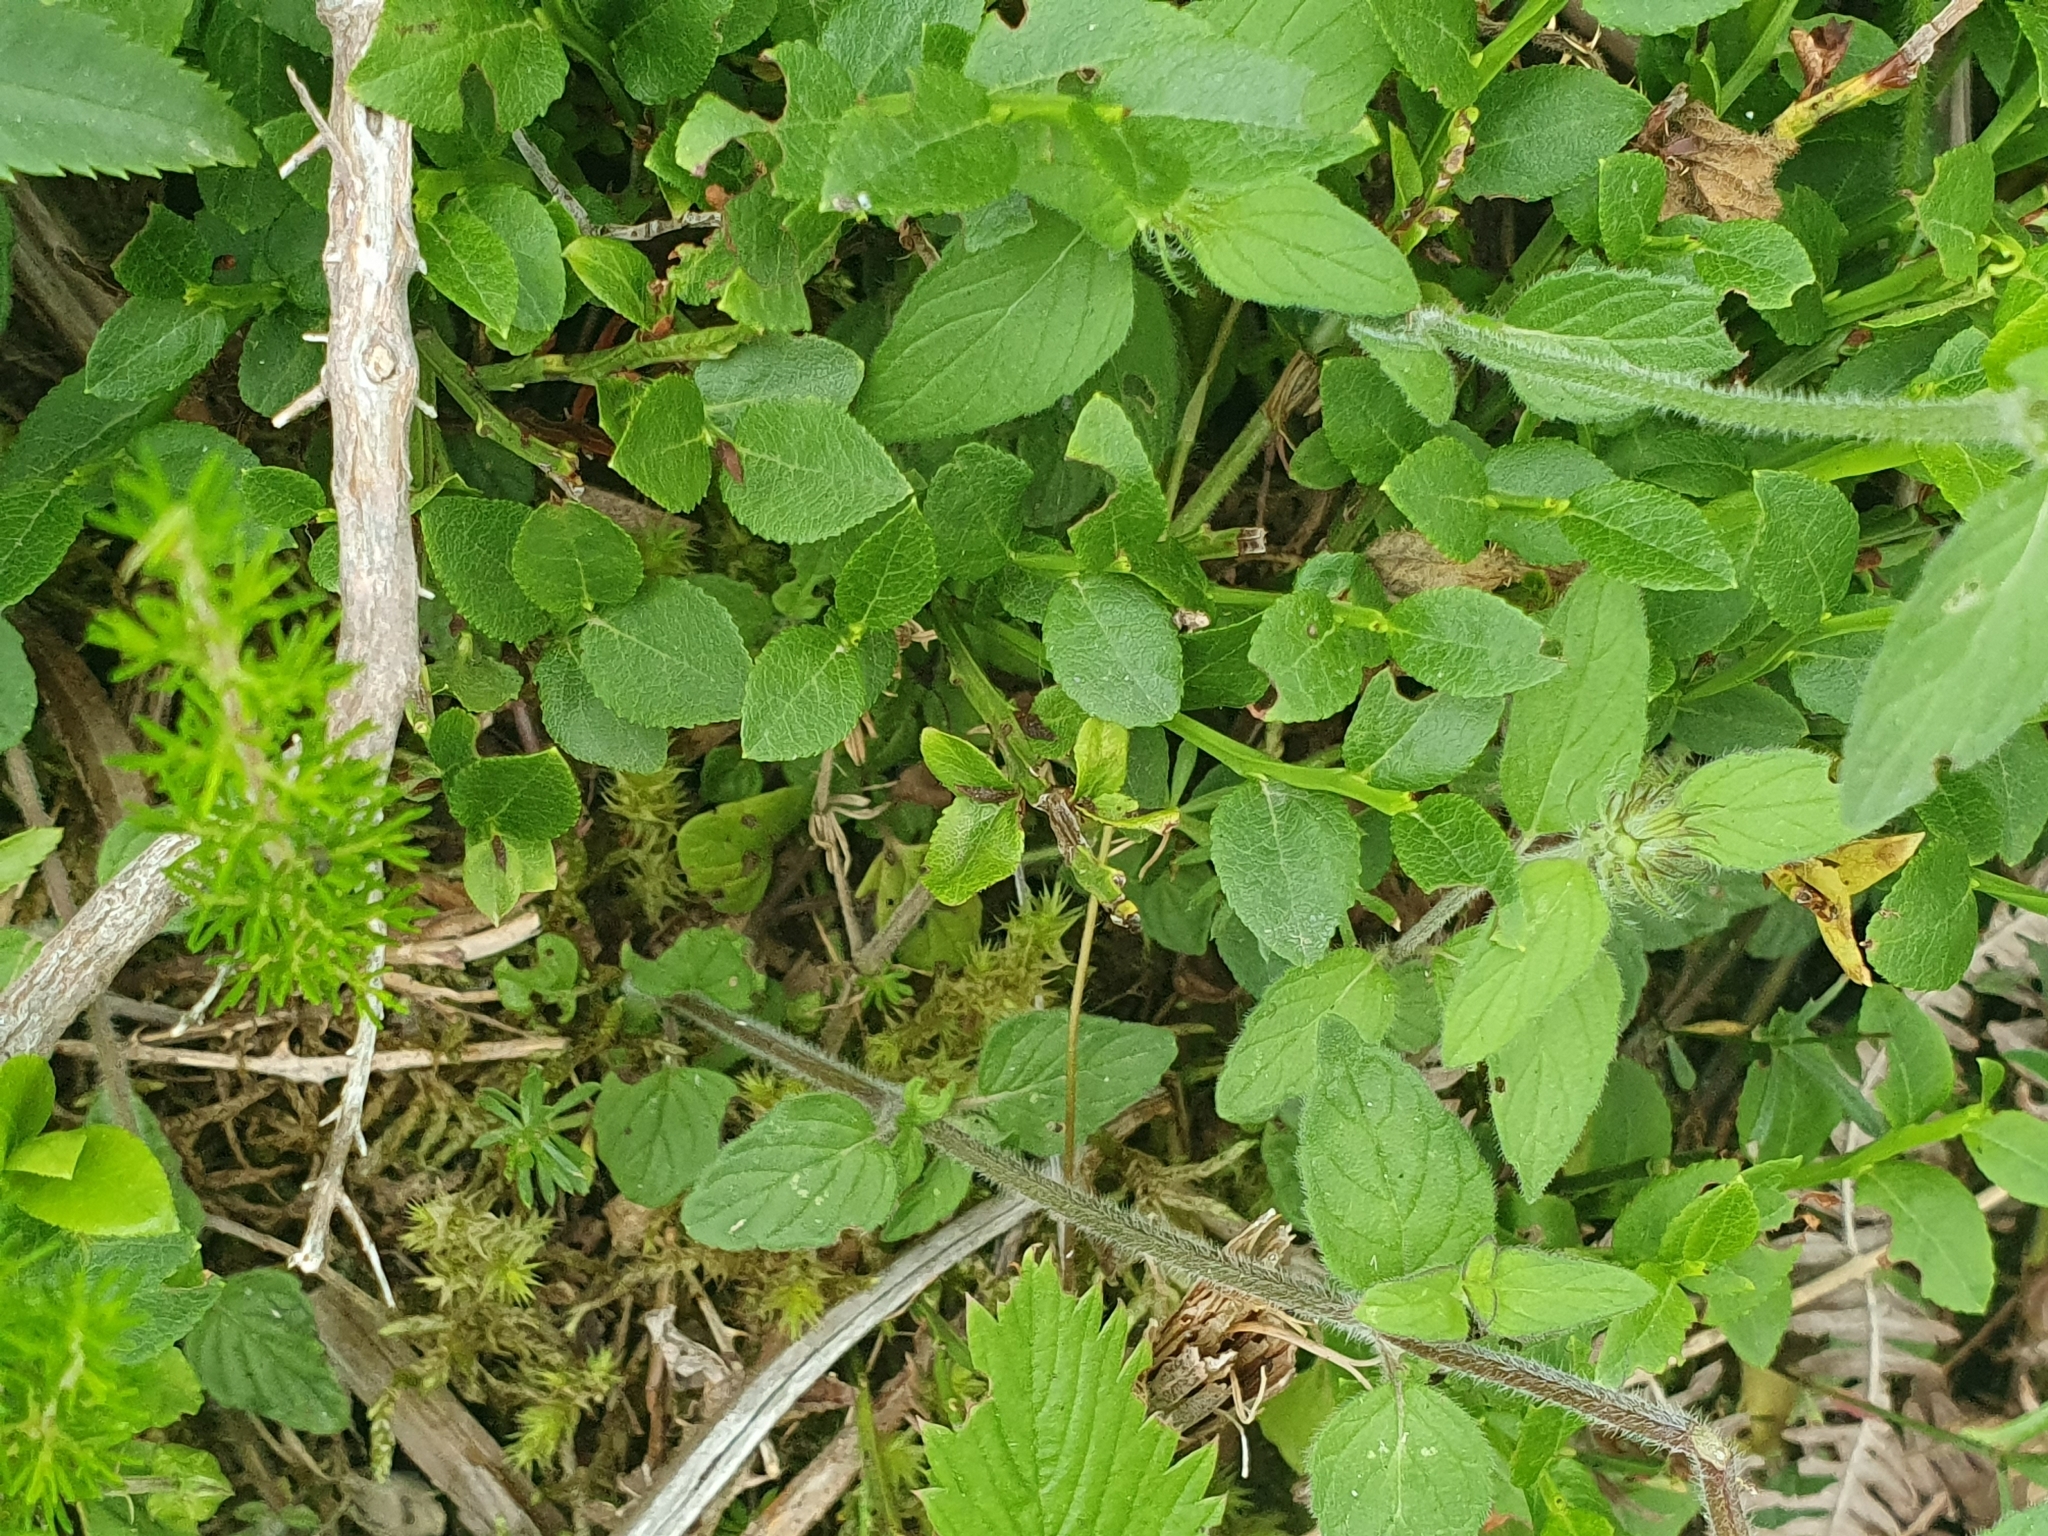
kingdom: Plantae
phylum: Tracheophyta
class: Magnoliopsida
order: Ericales
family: Ericaceae
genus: Vaccinium
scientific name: Vaccinium myrtillus
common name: Bilberry
